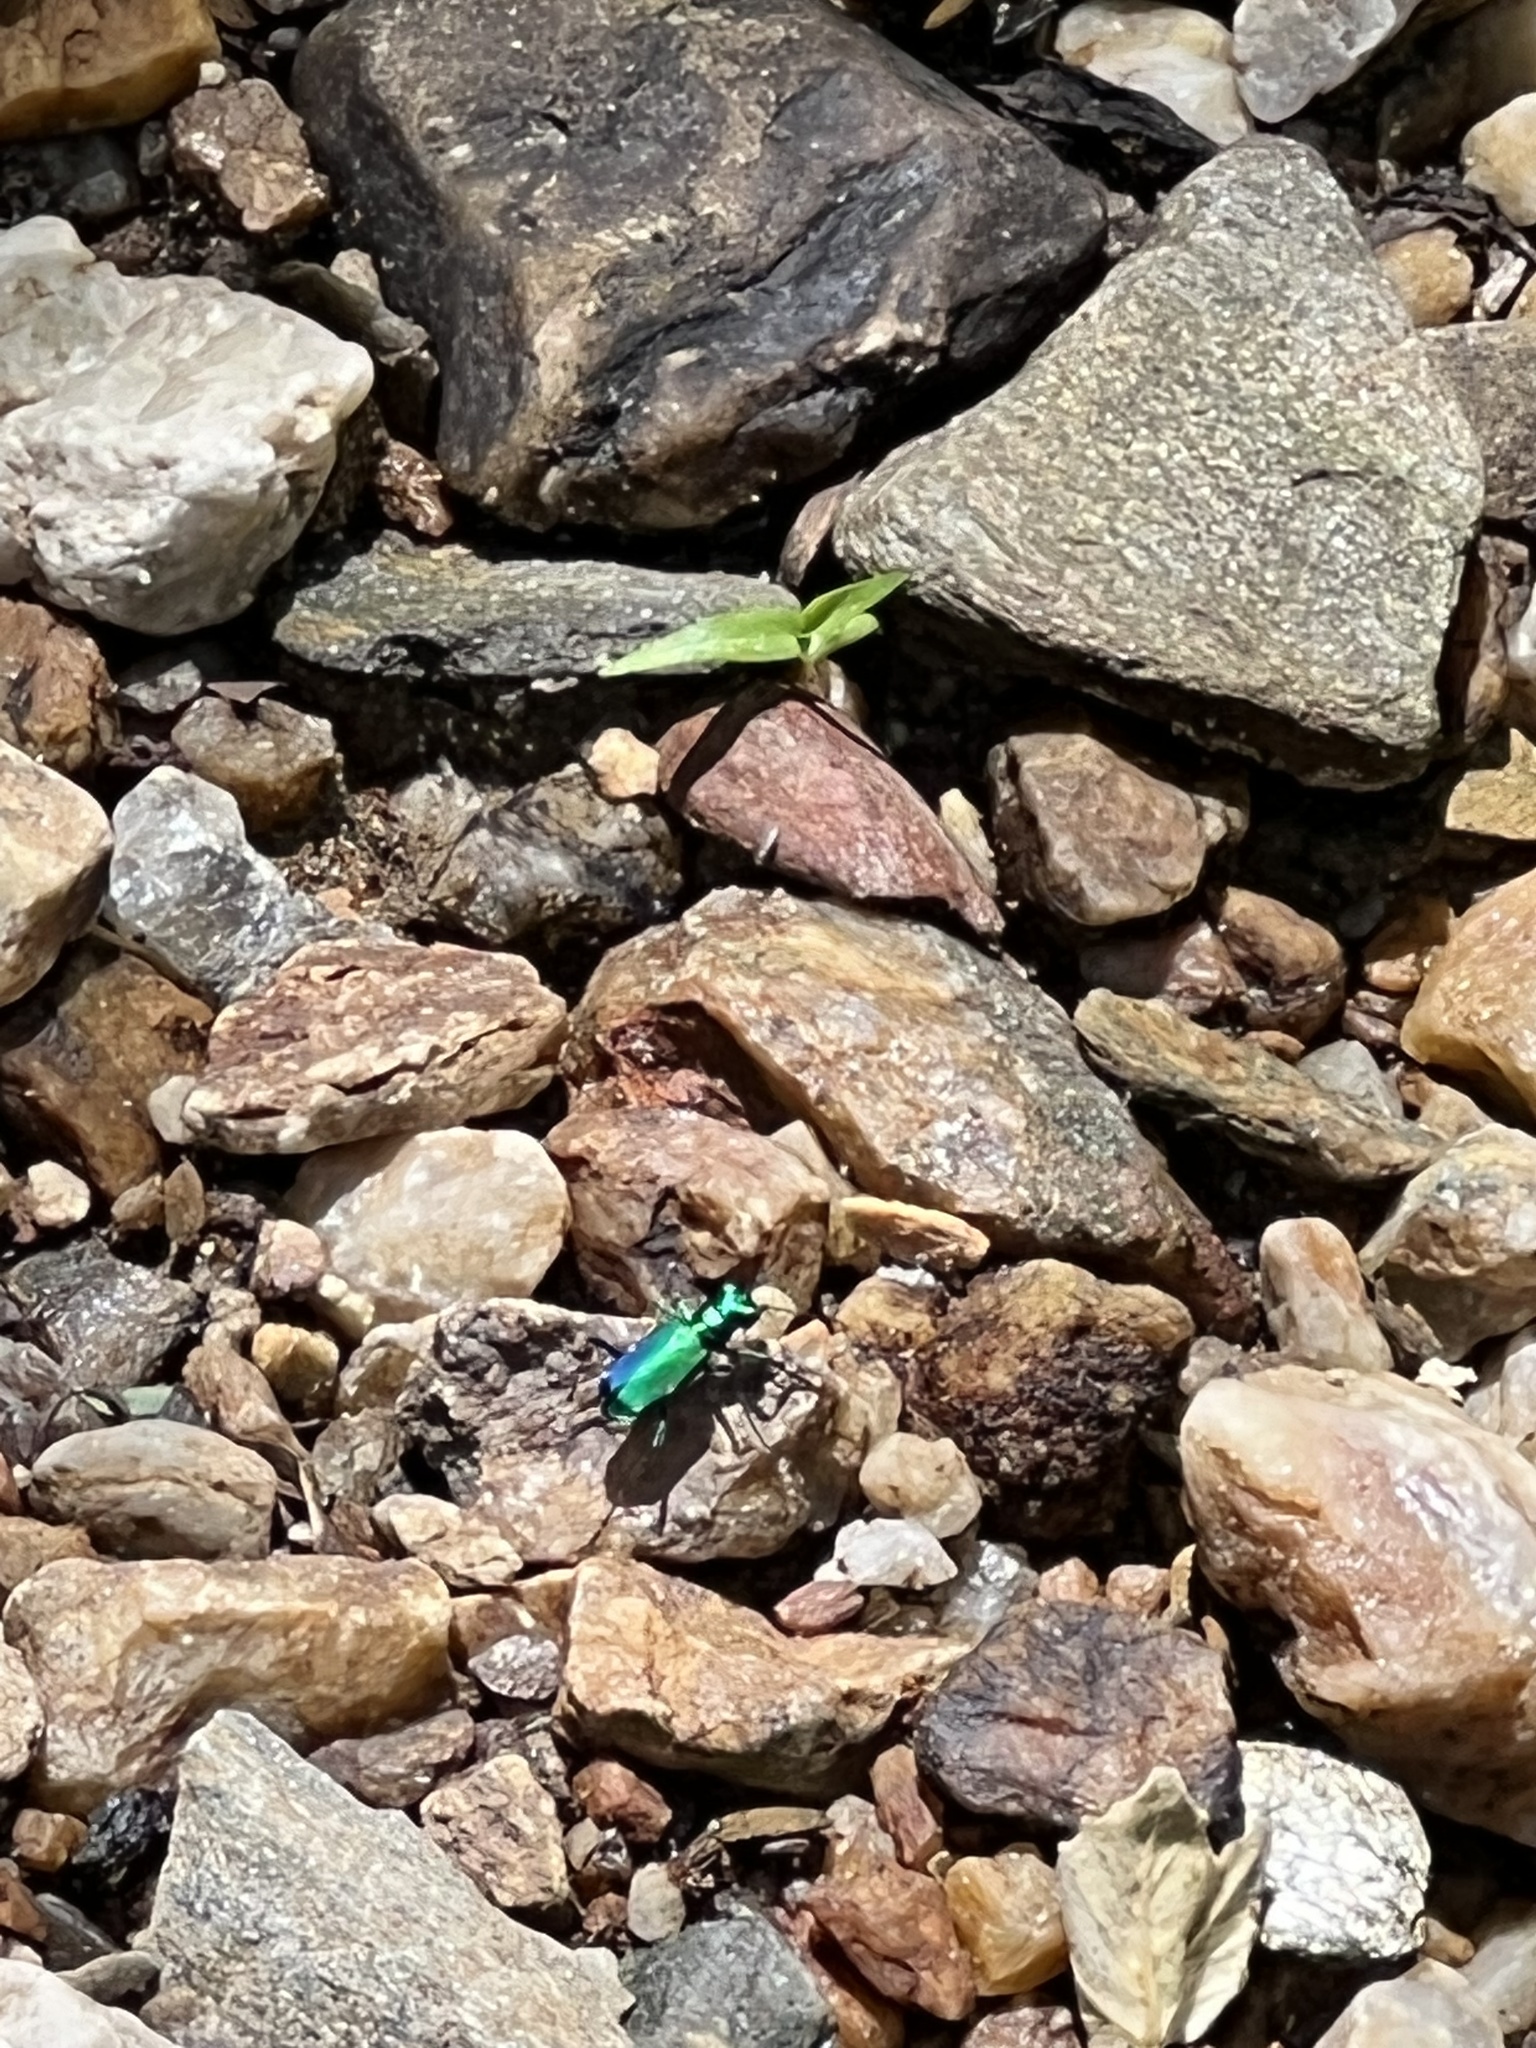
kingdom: Animalia
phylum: Arthropoda
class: Insecta
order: Coleoptera
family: Carabidae
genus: Cicindela
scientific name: Cicindela sexguttata
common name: Six-spotted tiger beetle
